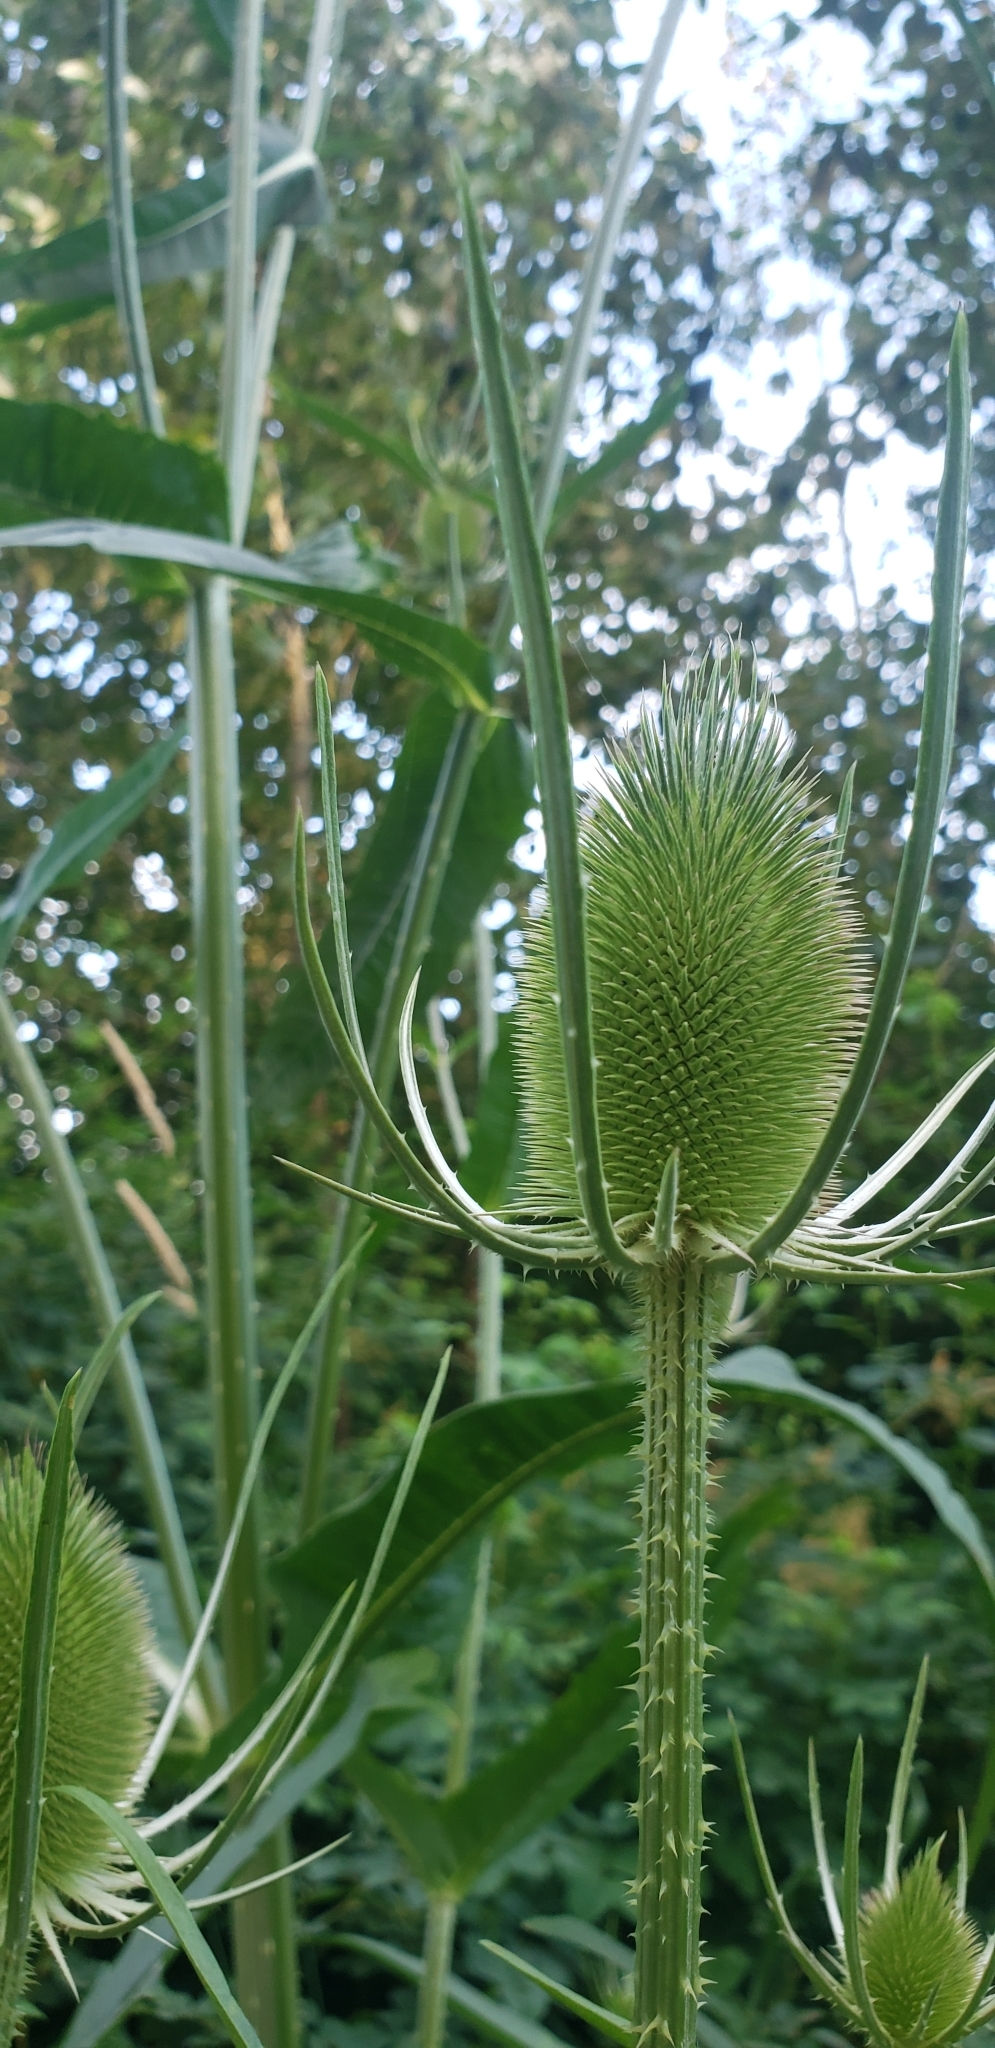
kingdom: Plantae
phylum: Tracheophyta
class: Magnoliopsida
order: Dipsacales
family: Caprifoliaceae
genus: Dipsacus
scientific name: Dipsacus fullonum
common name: Teasel
